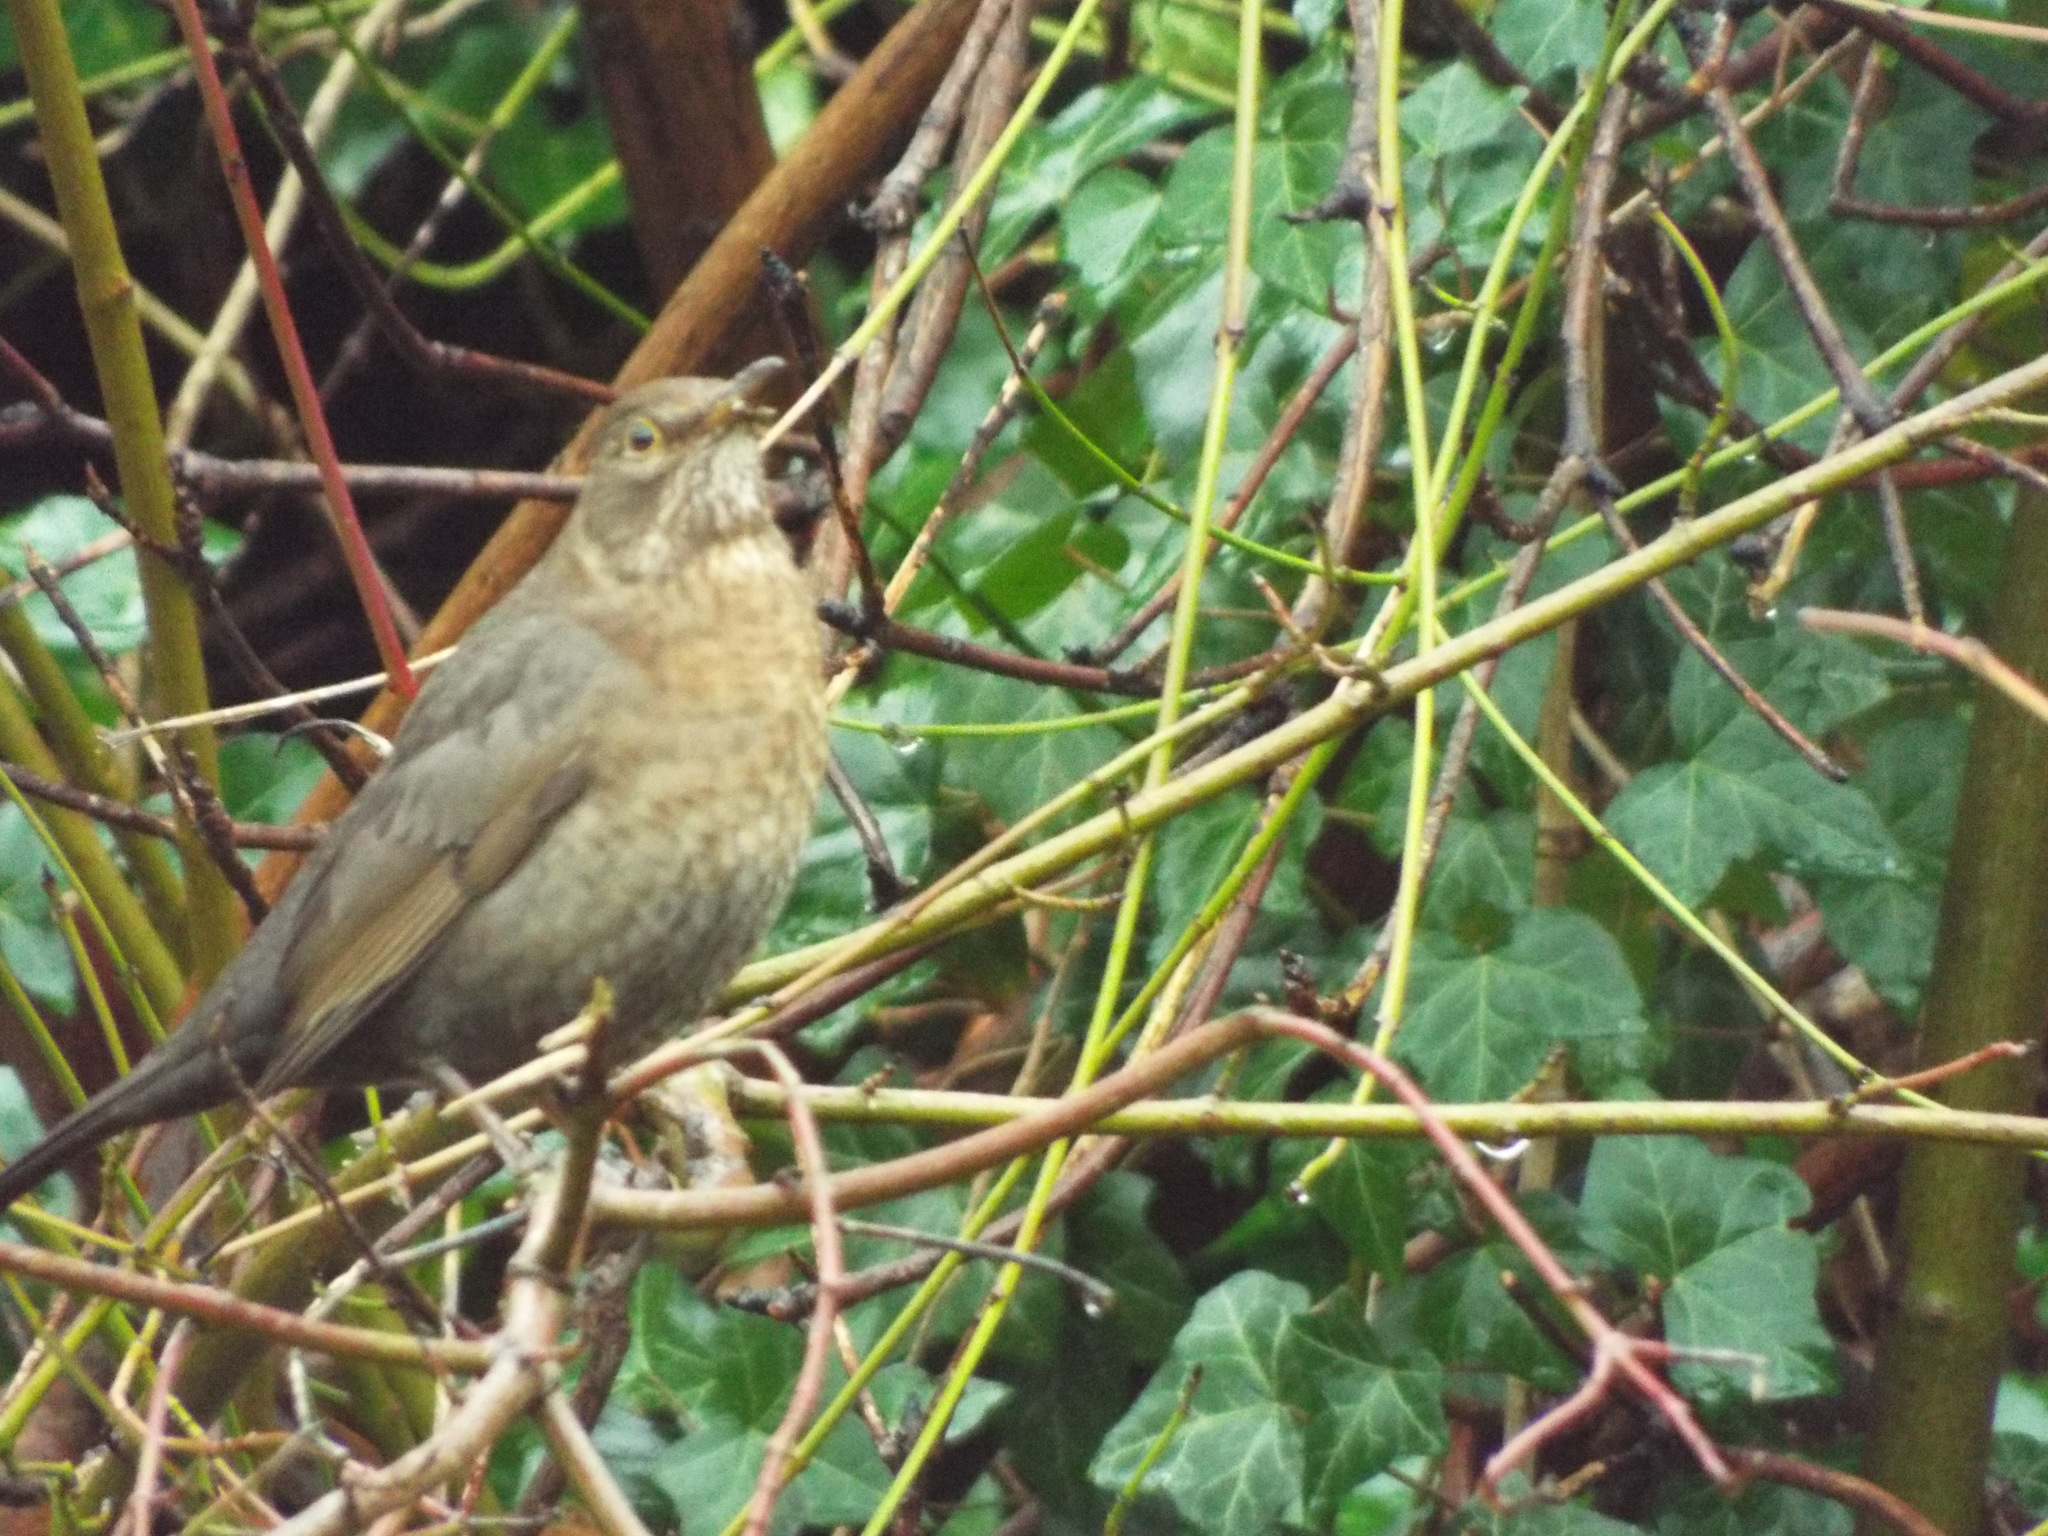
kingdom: Animalia
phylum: Chordata
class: Aves
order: Passeriformes
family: Turdidae
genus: Turdus
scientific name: Turdus merula
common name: Common blackbird
